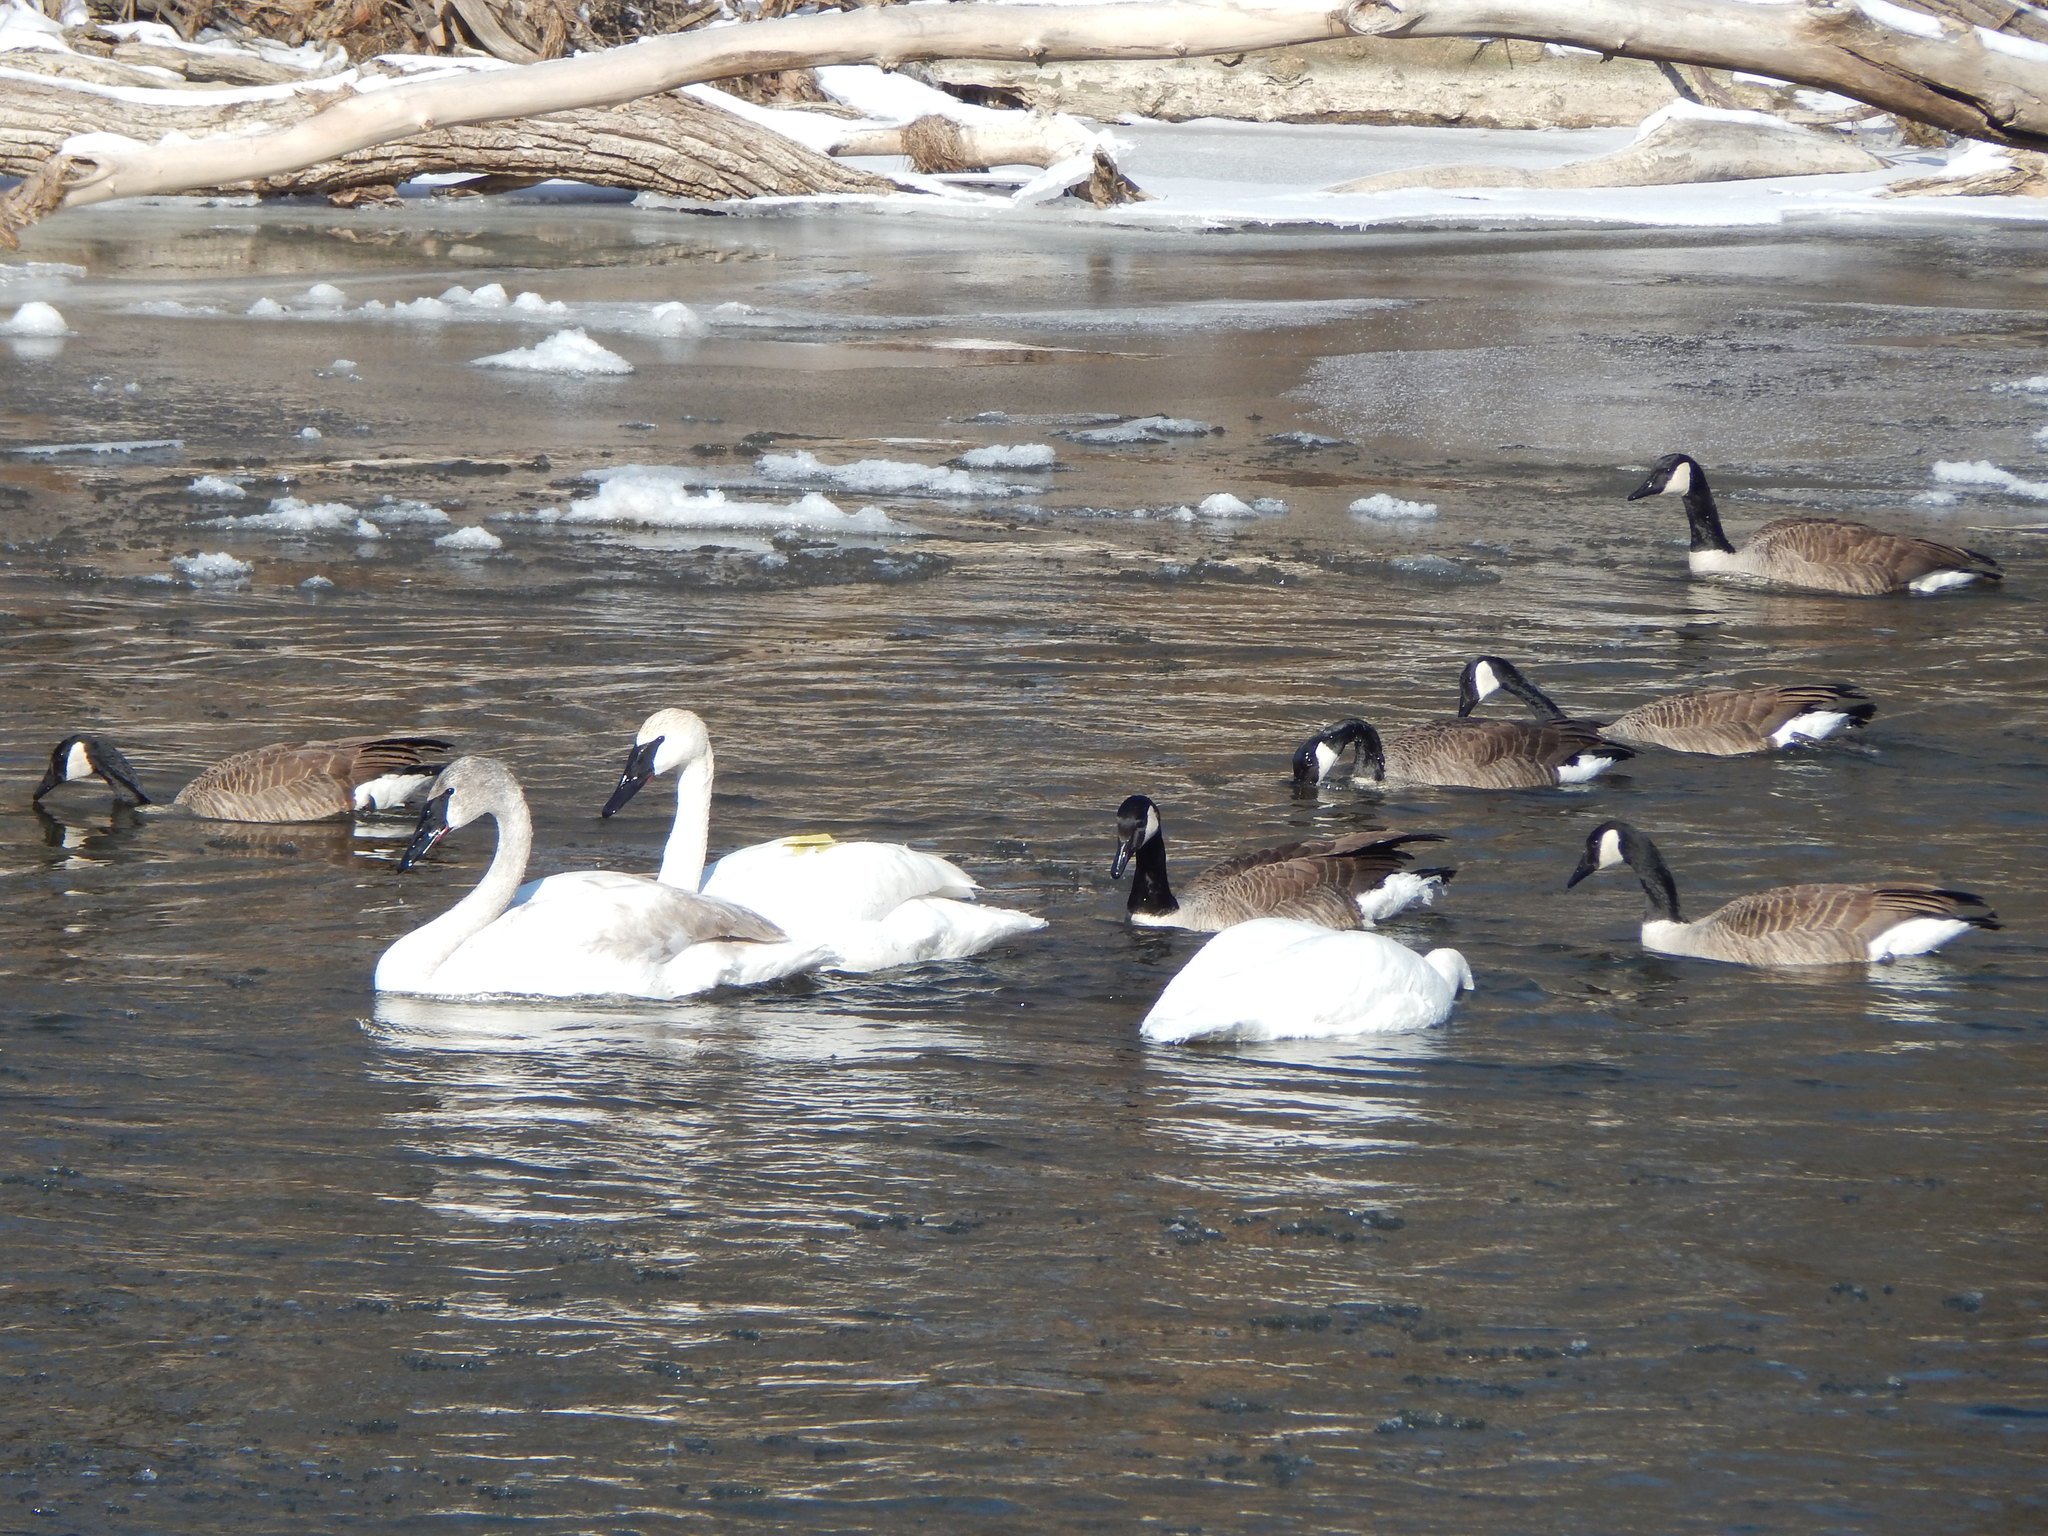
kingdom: Animalia
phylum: Chordata
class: Aves
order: Anseriformes
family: Anatidae
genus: Cygnus
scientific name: Cygnus buccinator
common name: Trumpeter swan
